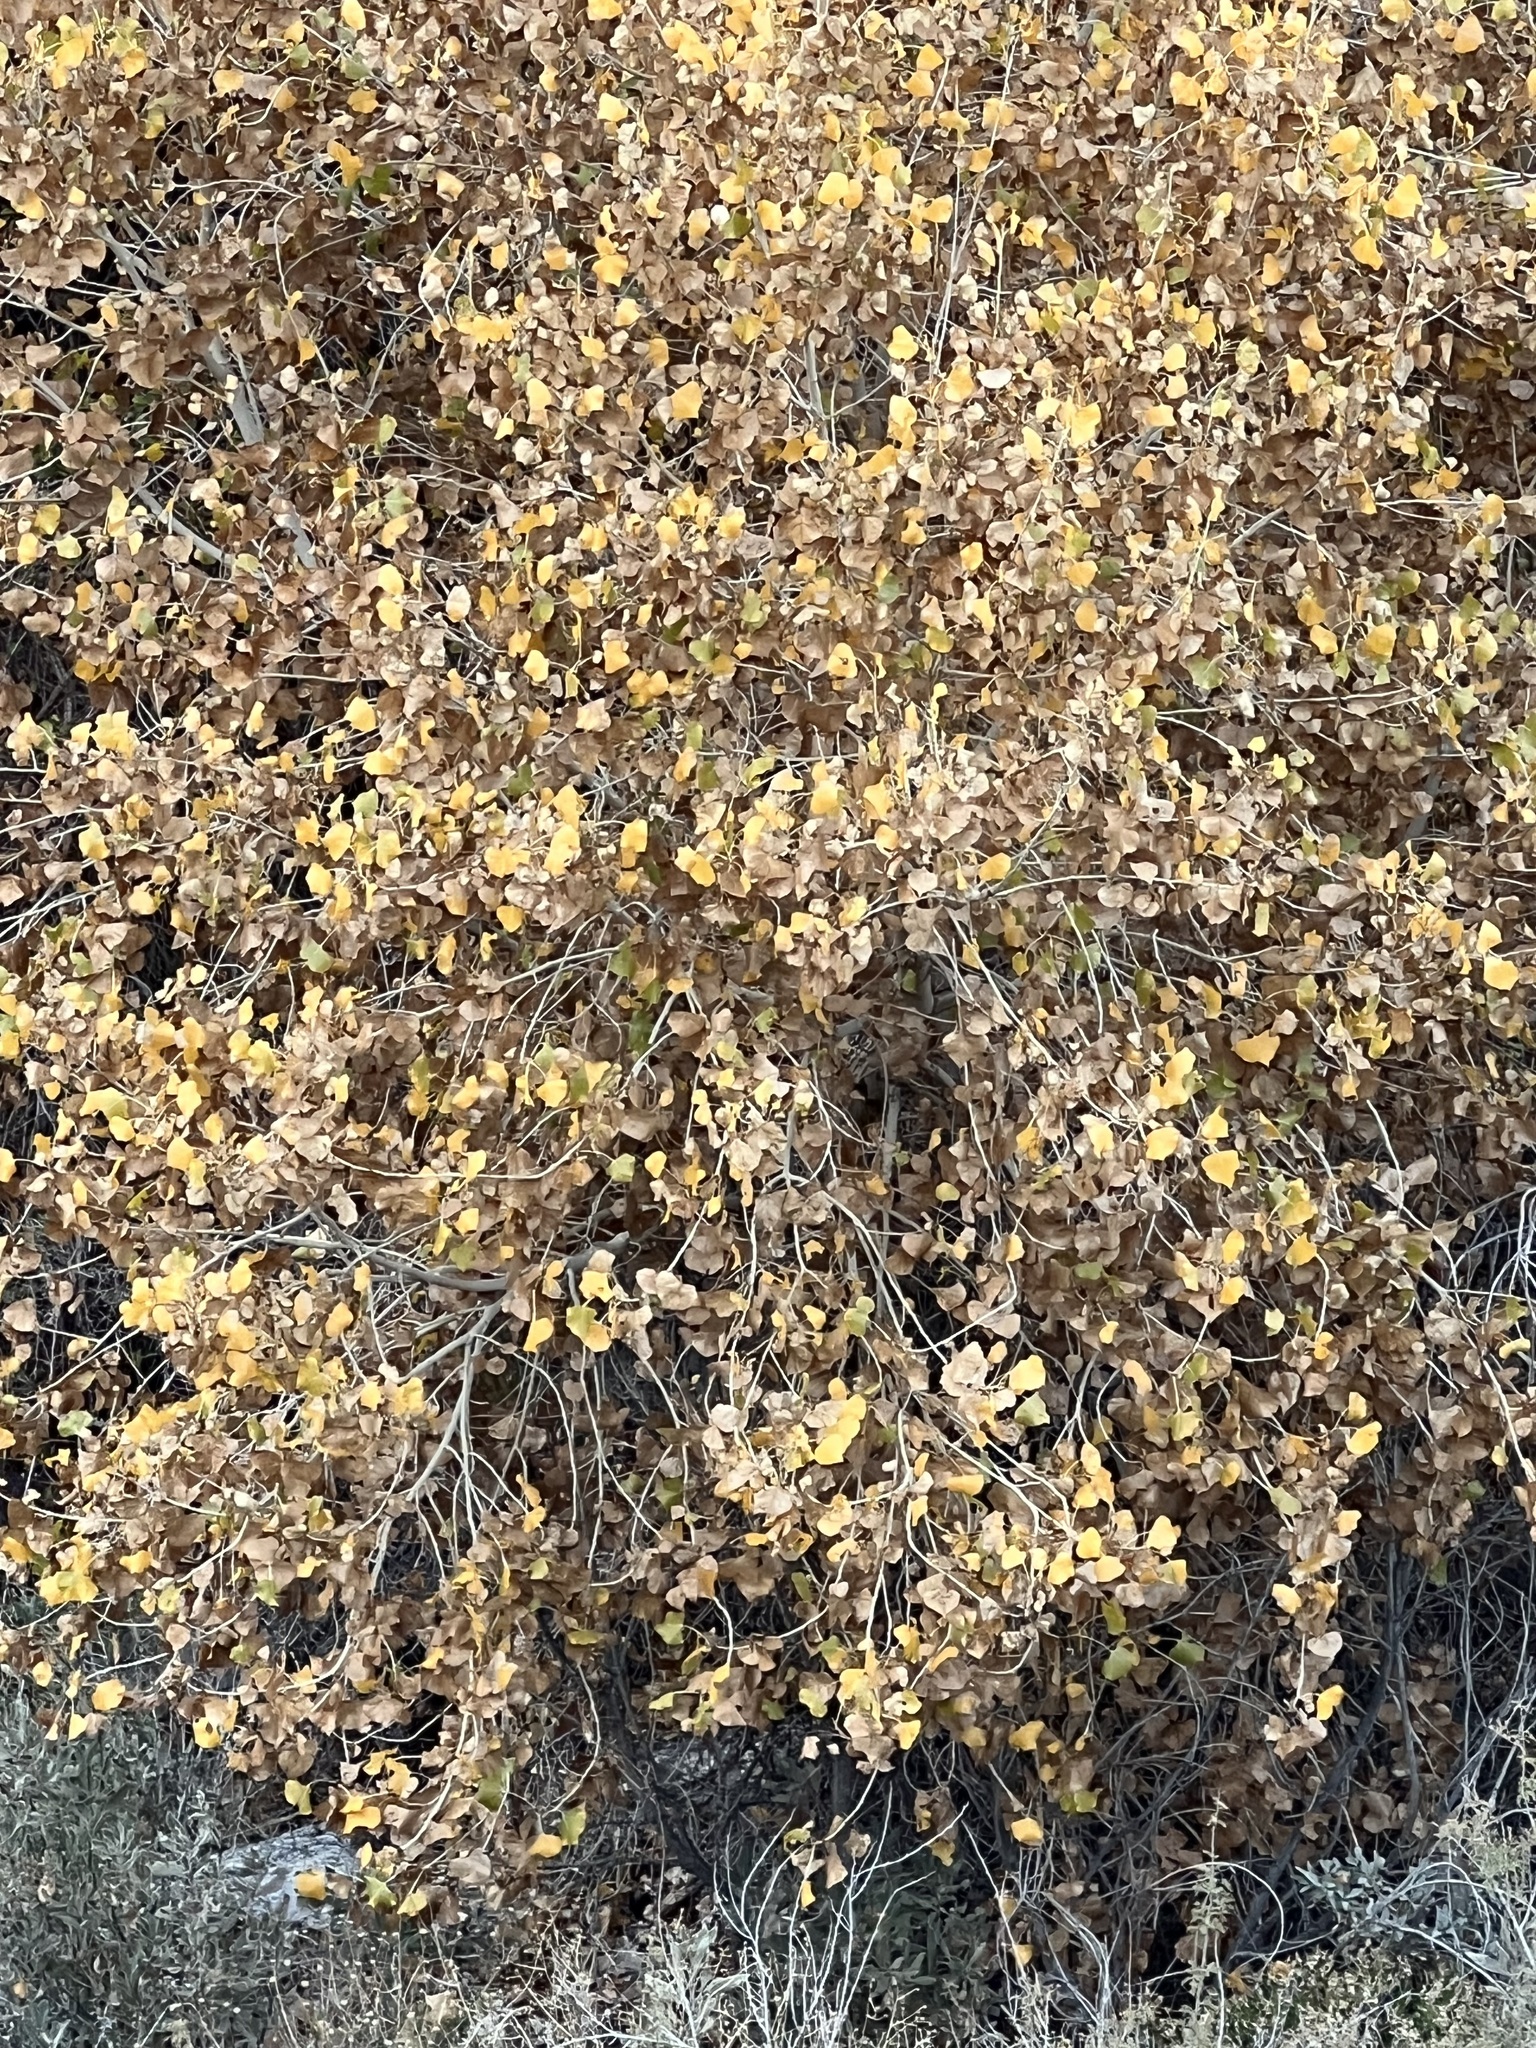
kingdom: Plantae
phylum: Tracheophyta
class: Magnoliopsida
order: Malpighiales
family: Salicaceae
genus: Populus
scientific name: Populus fremontii
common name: Fremont's cottonwood
